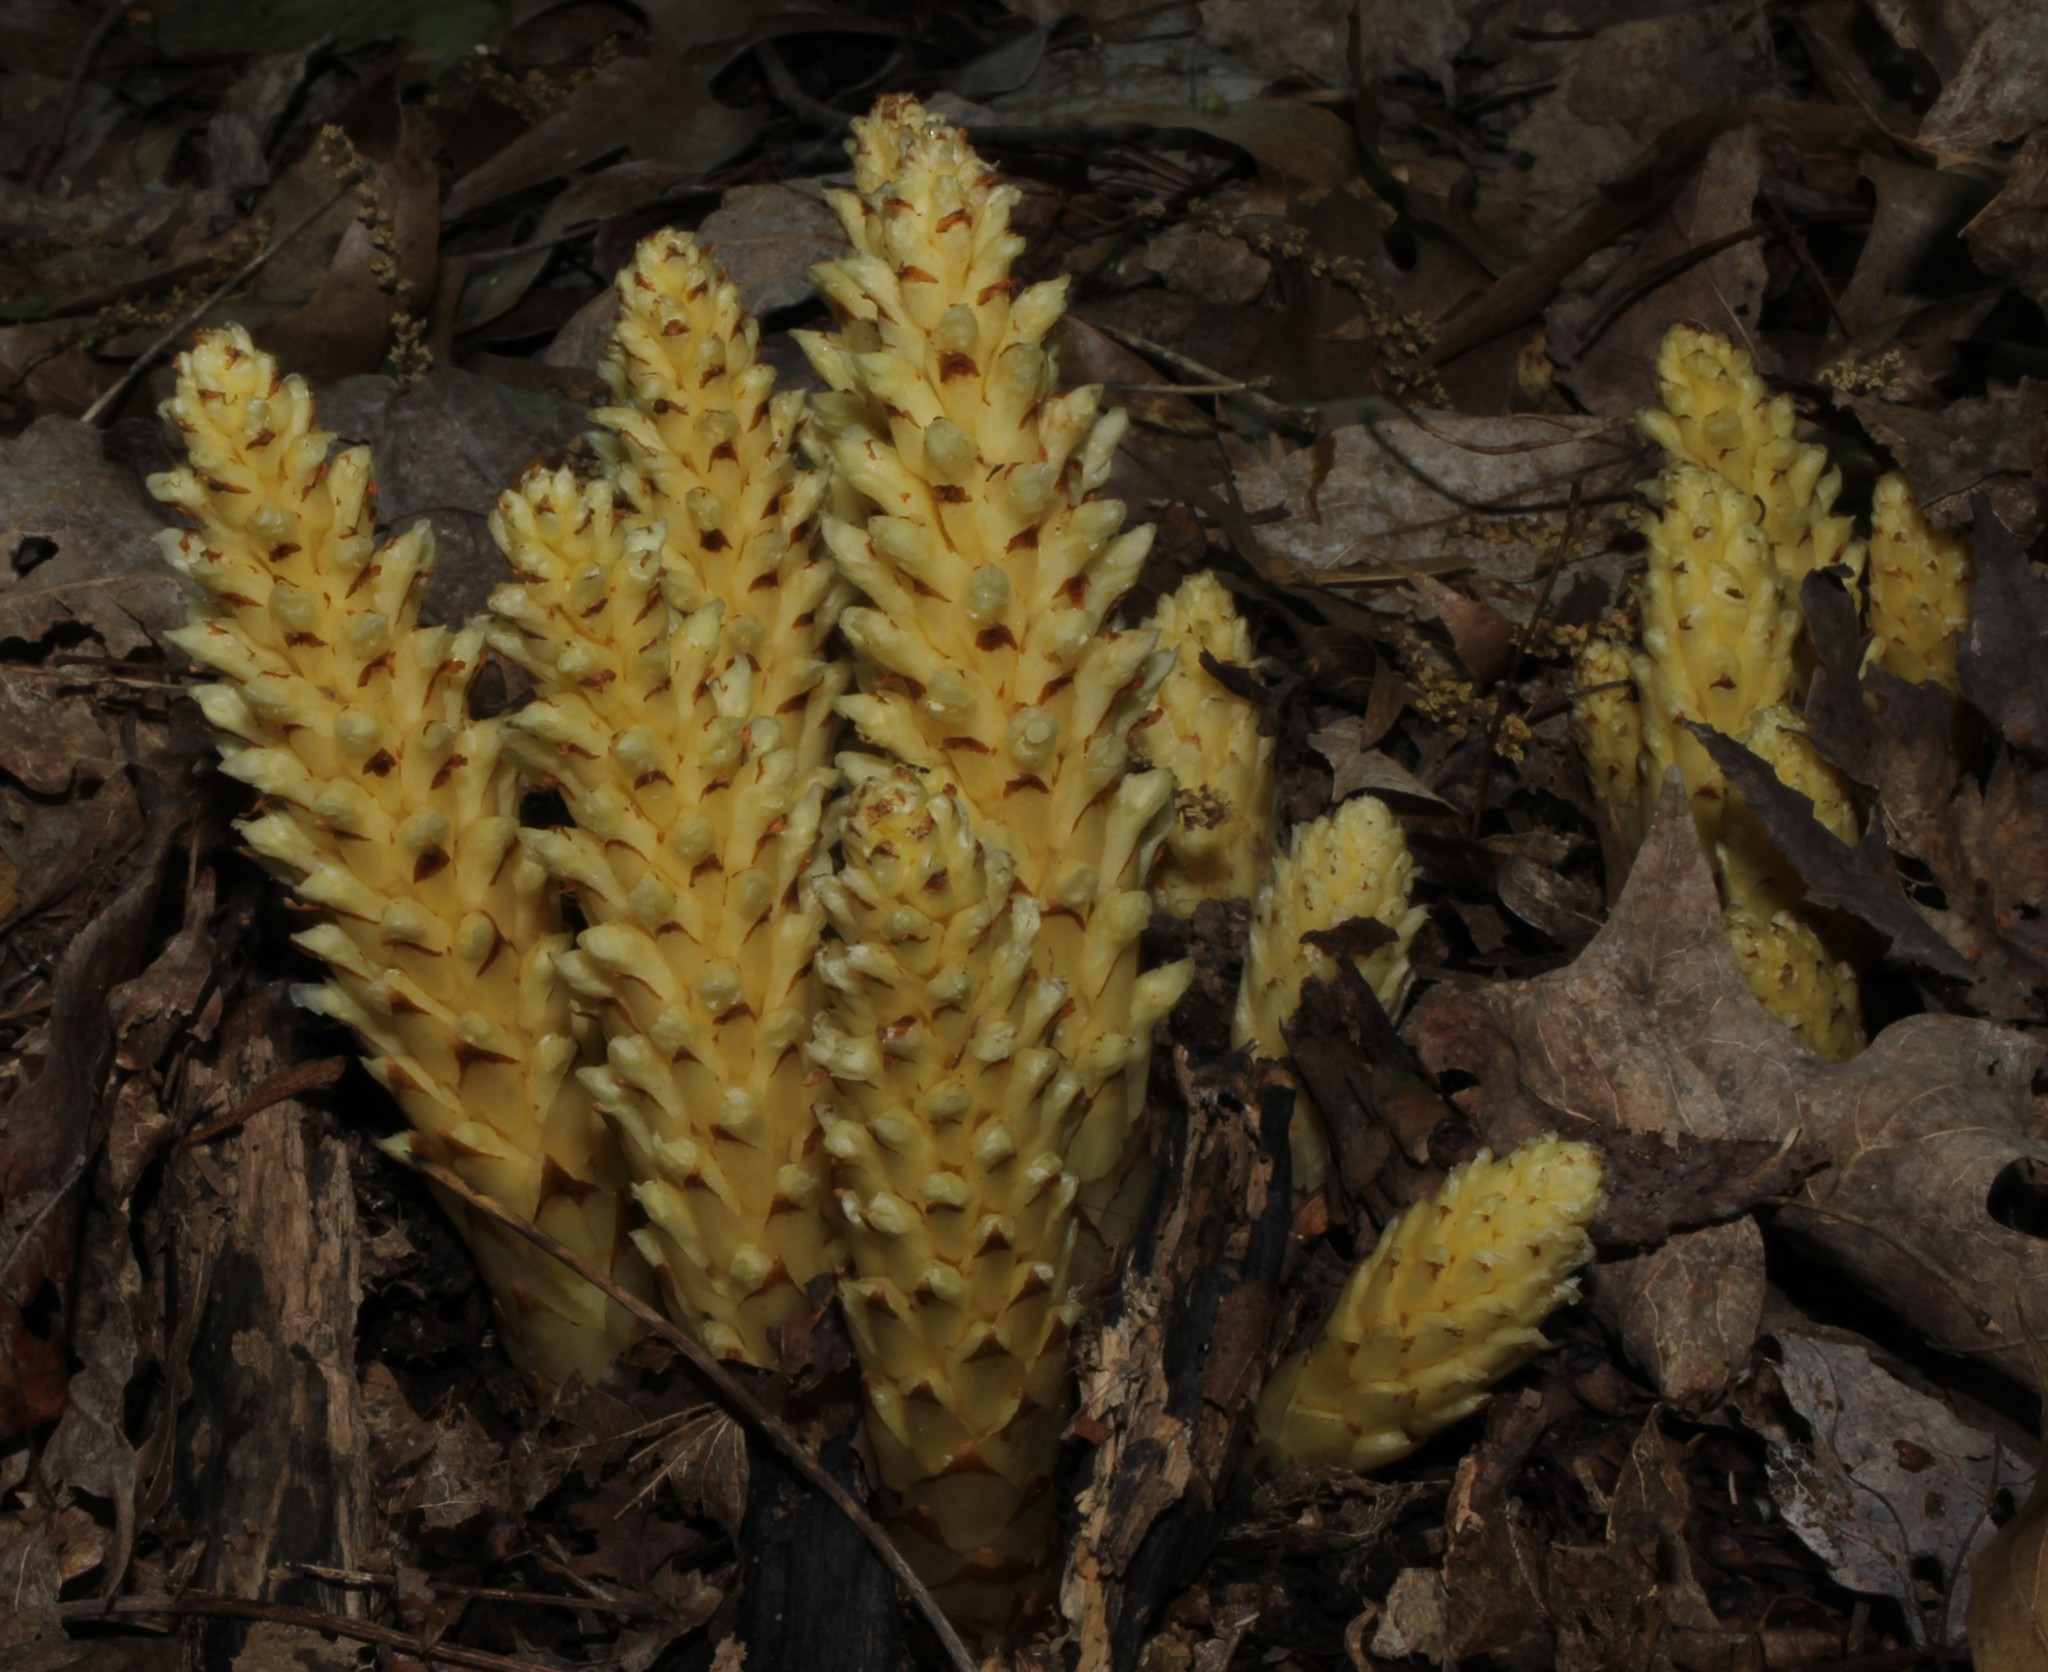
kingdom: Plantae
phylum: Tracheophyta
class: Magnoliopsida
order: Lamiales
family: Orobanchaceae
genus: Conopholis
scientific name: Conopholis americana
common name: American cancer-root
